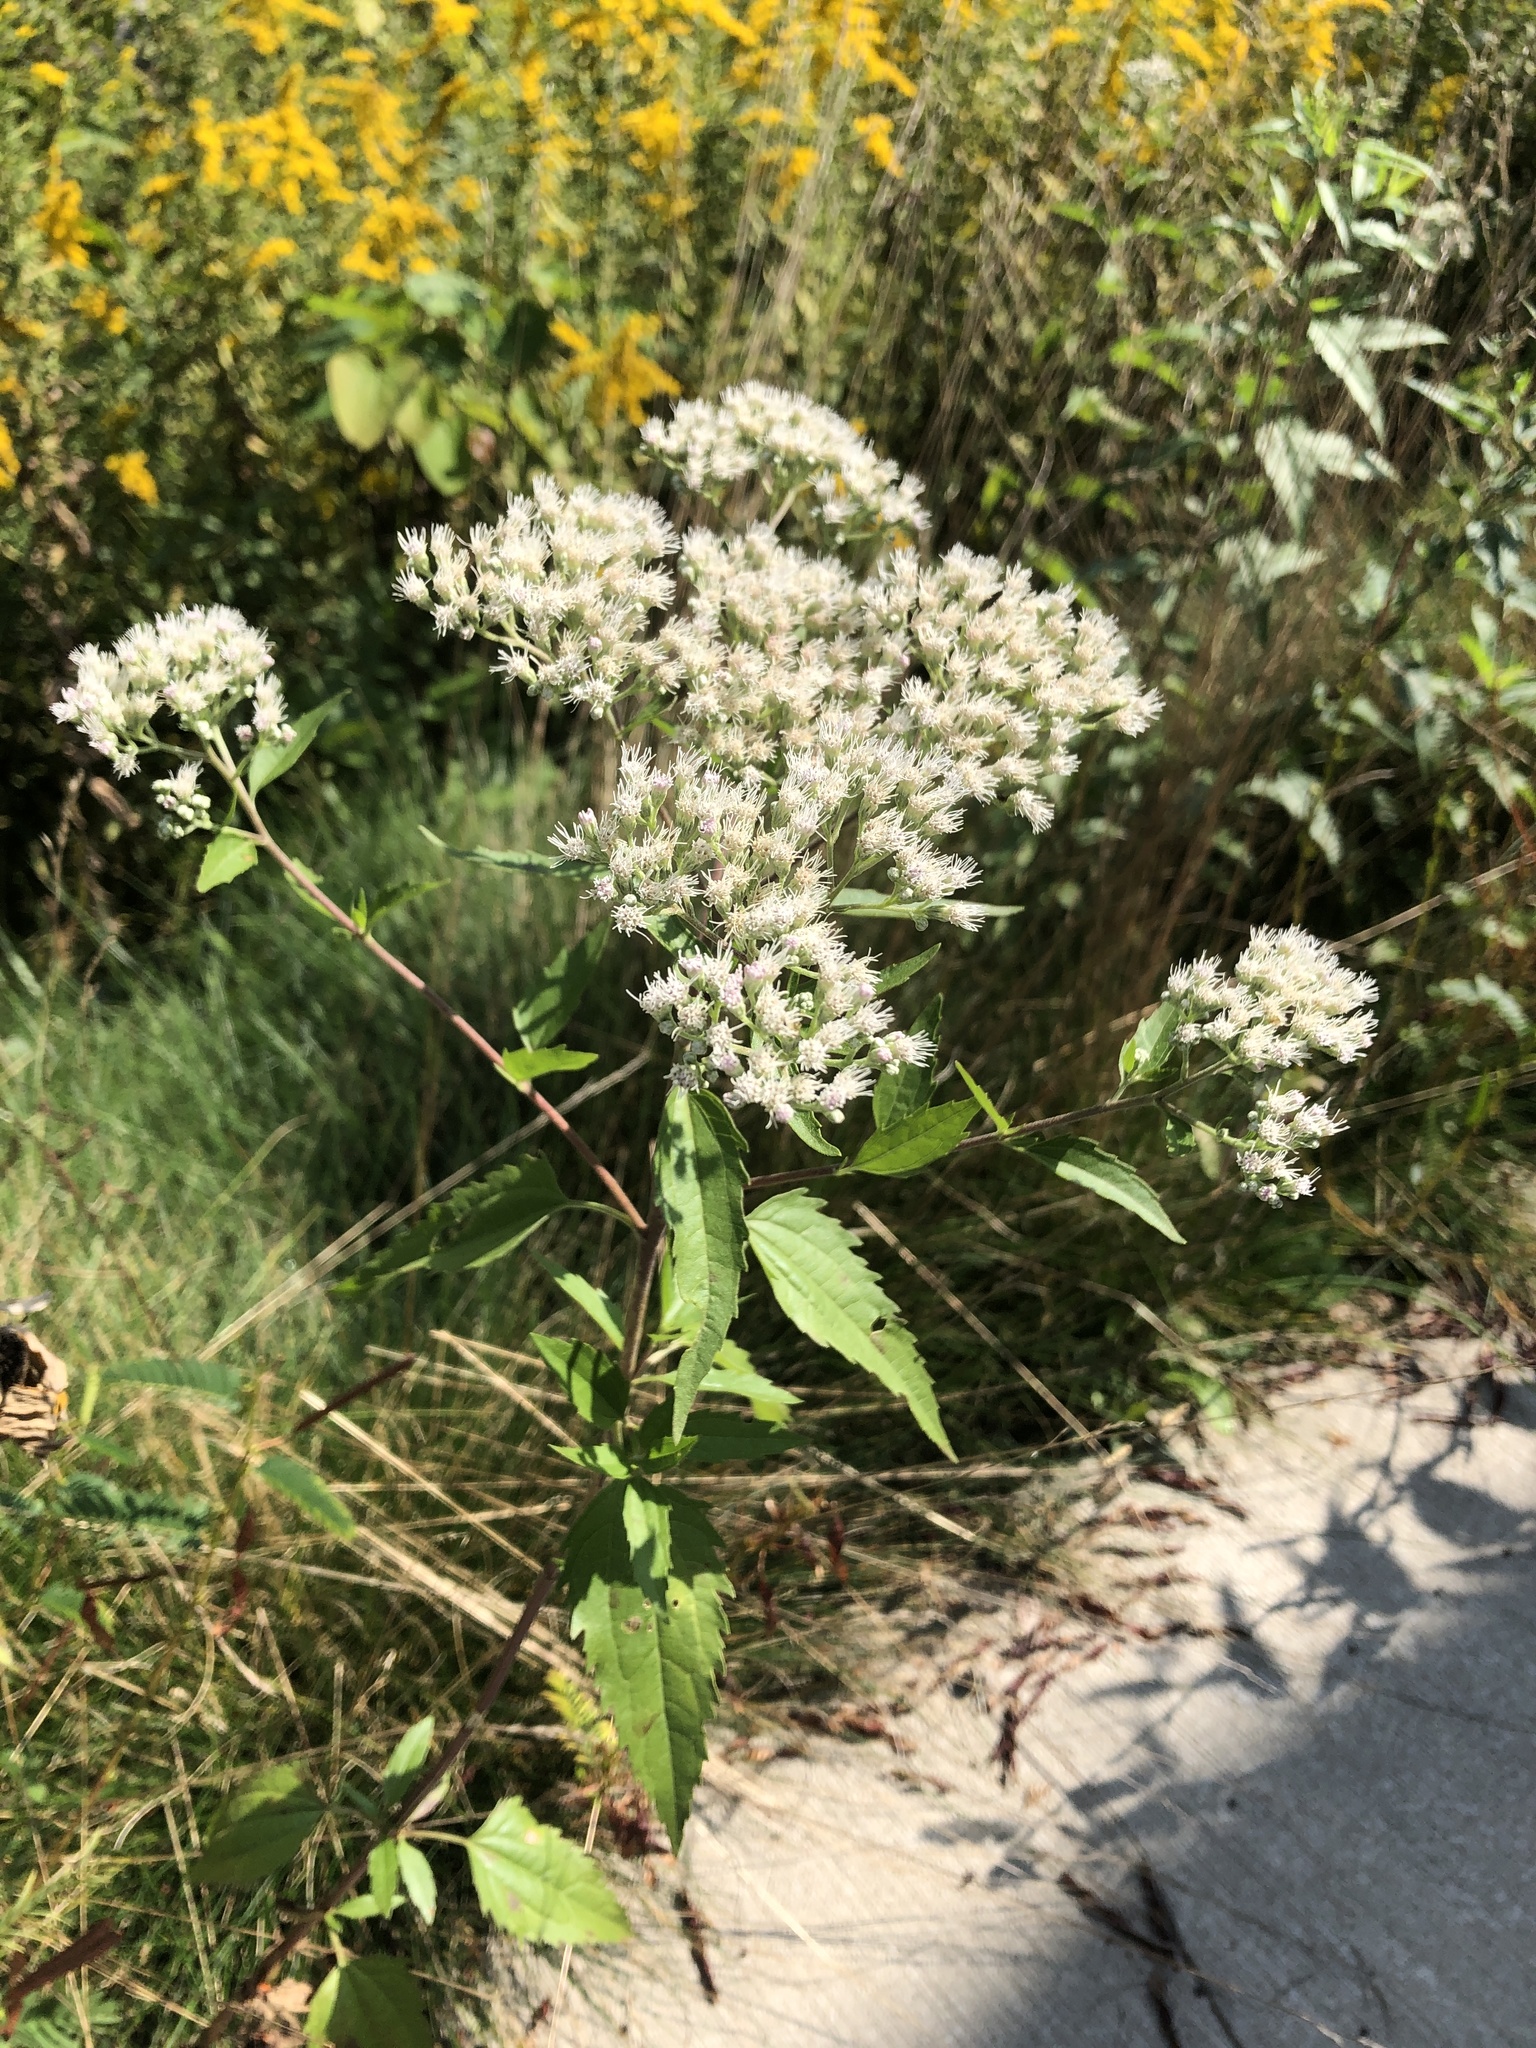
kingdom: Plantae
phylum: Tracheophyta
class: Magnoliopsida
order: Asterales
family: Asteraceae
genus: Eupatorium
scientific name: Eupatorium serotinum
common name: Late boneset
